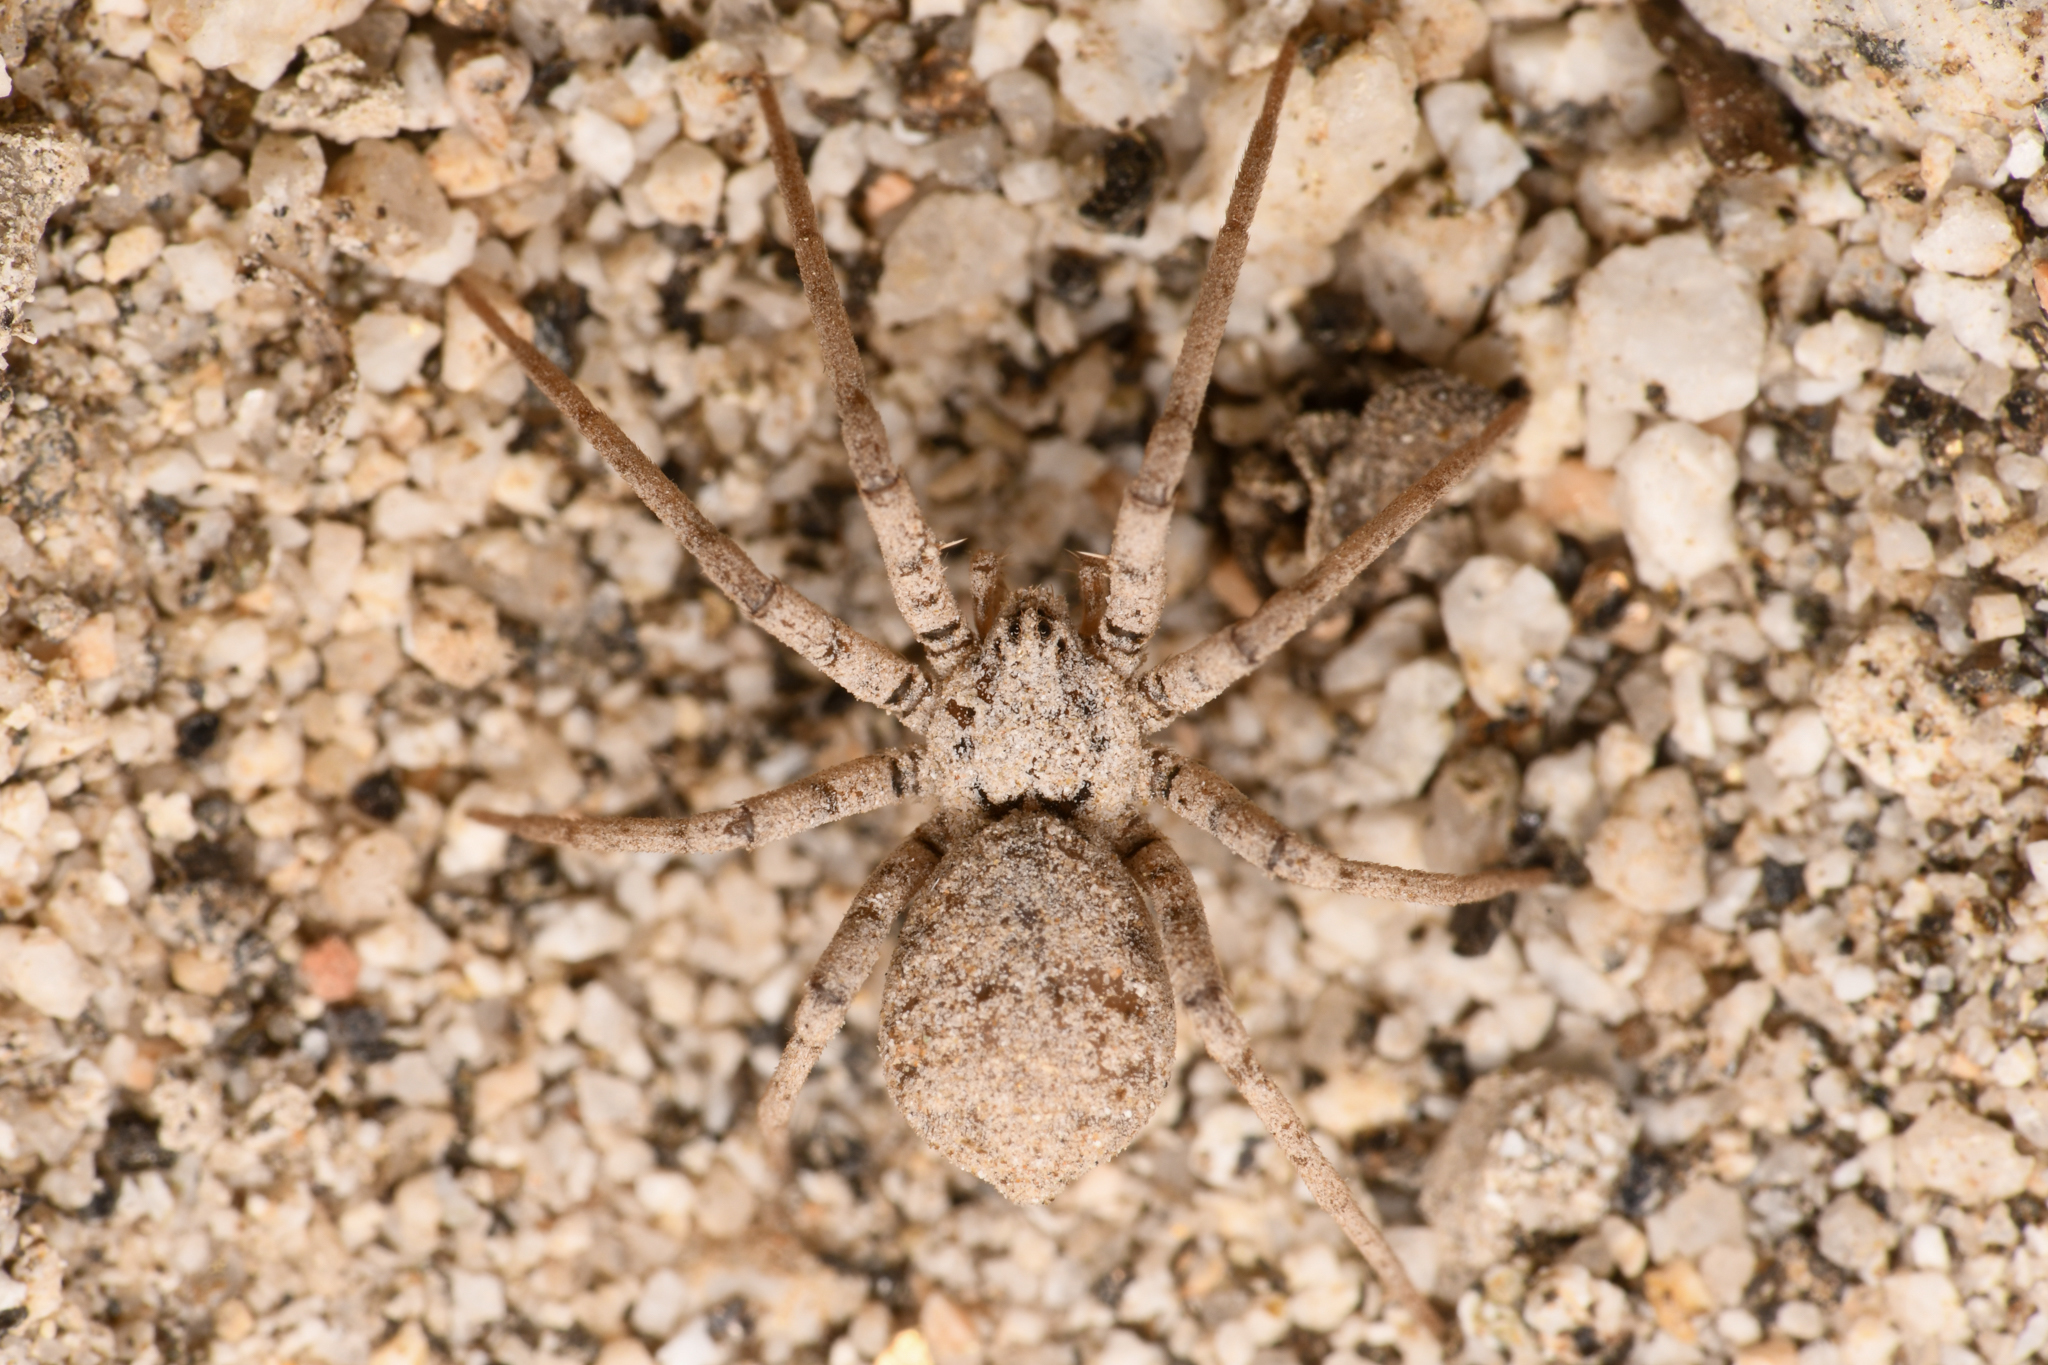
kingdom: Animalia
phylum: Arthropoda
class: Arachnida
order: Araneae
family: Homalonychidae
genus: Homalonychus
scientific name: Homalonychus theologus
